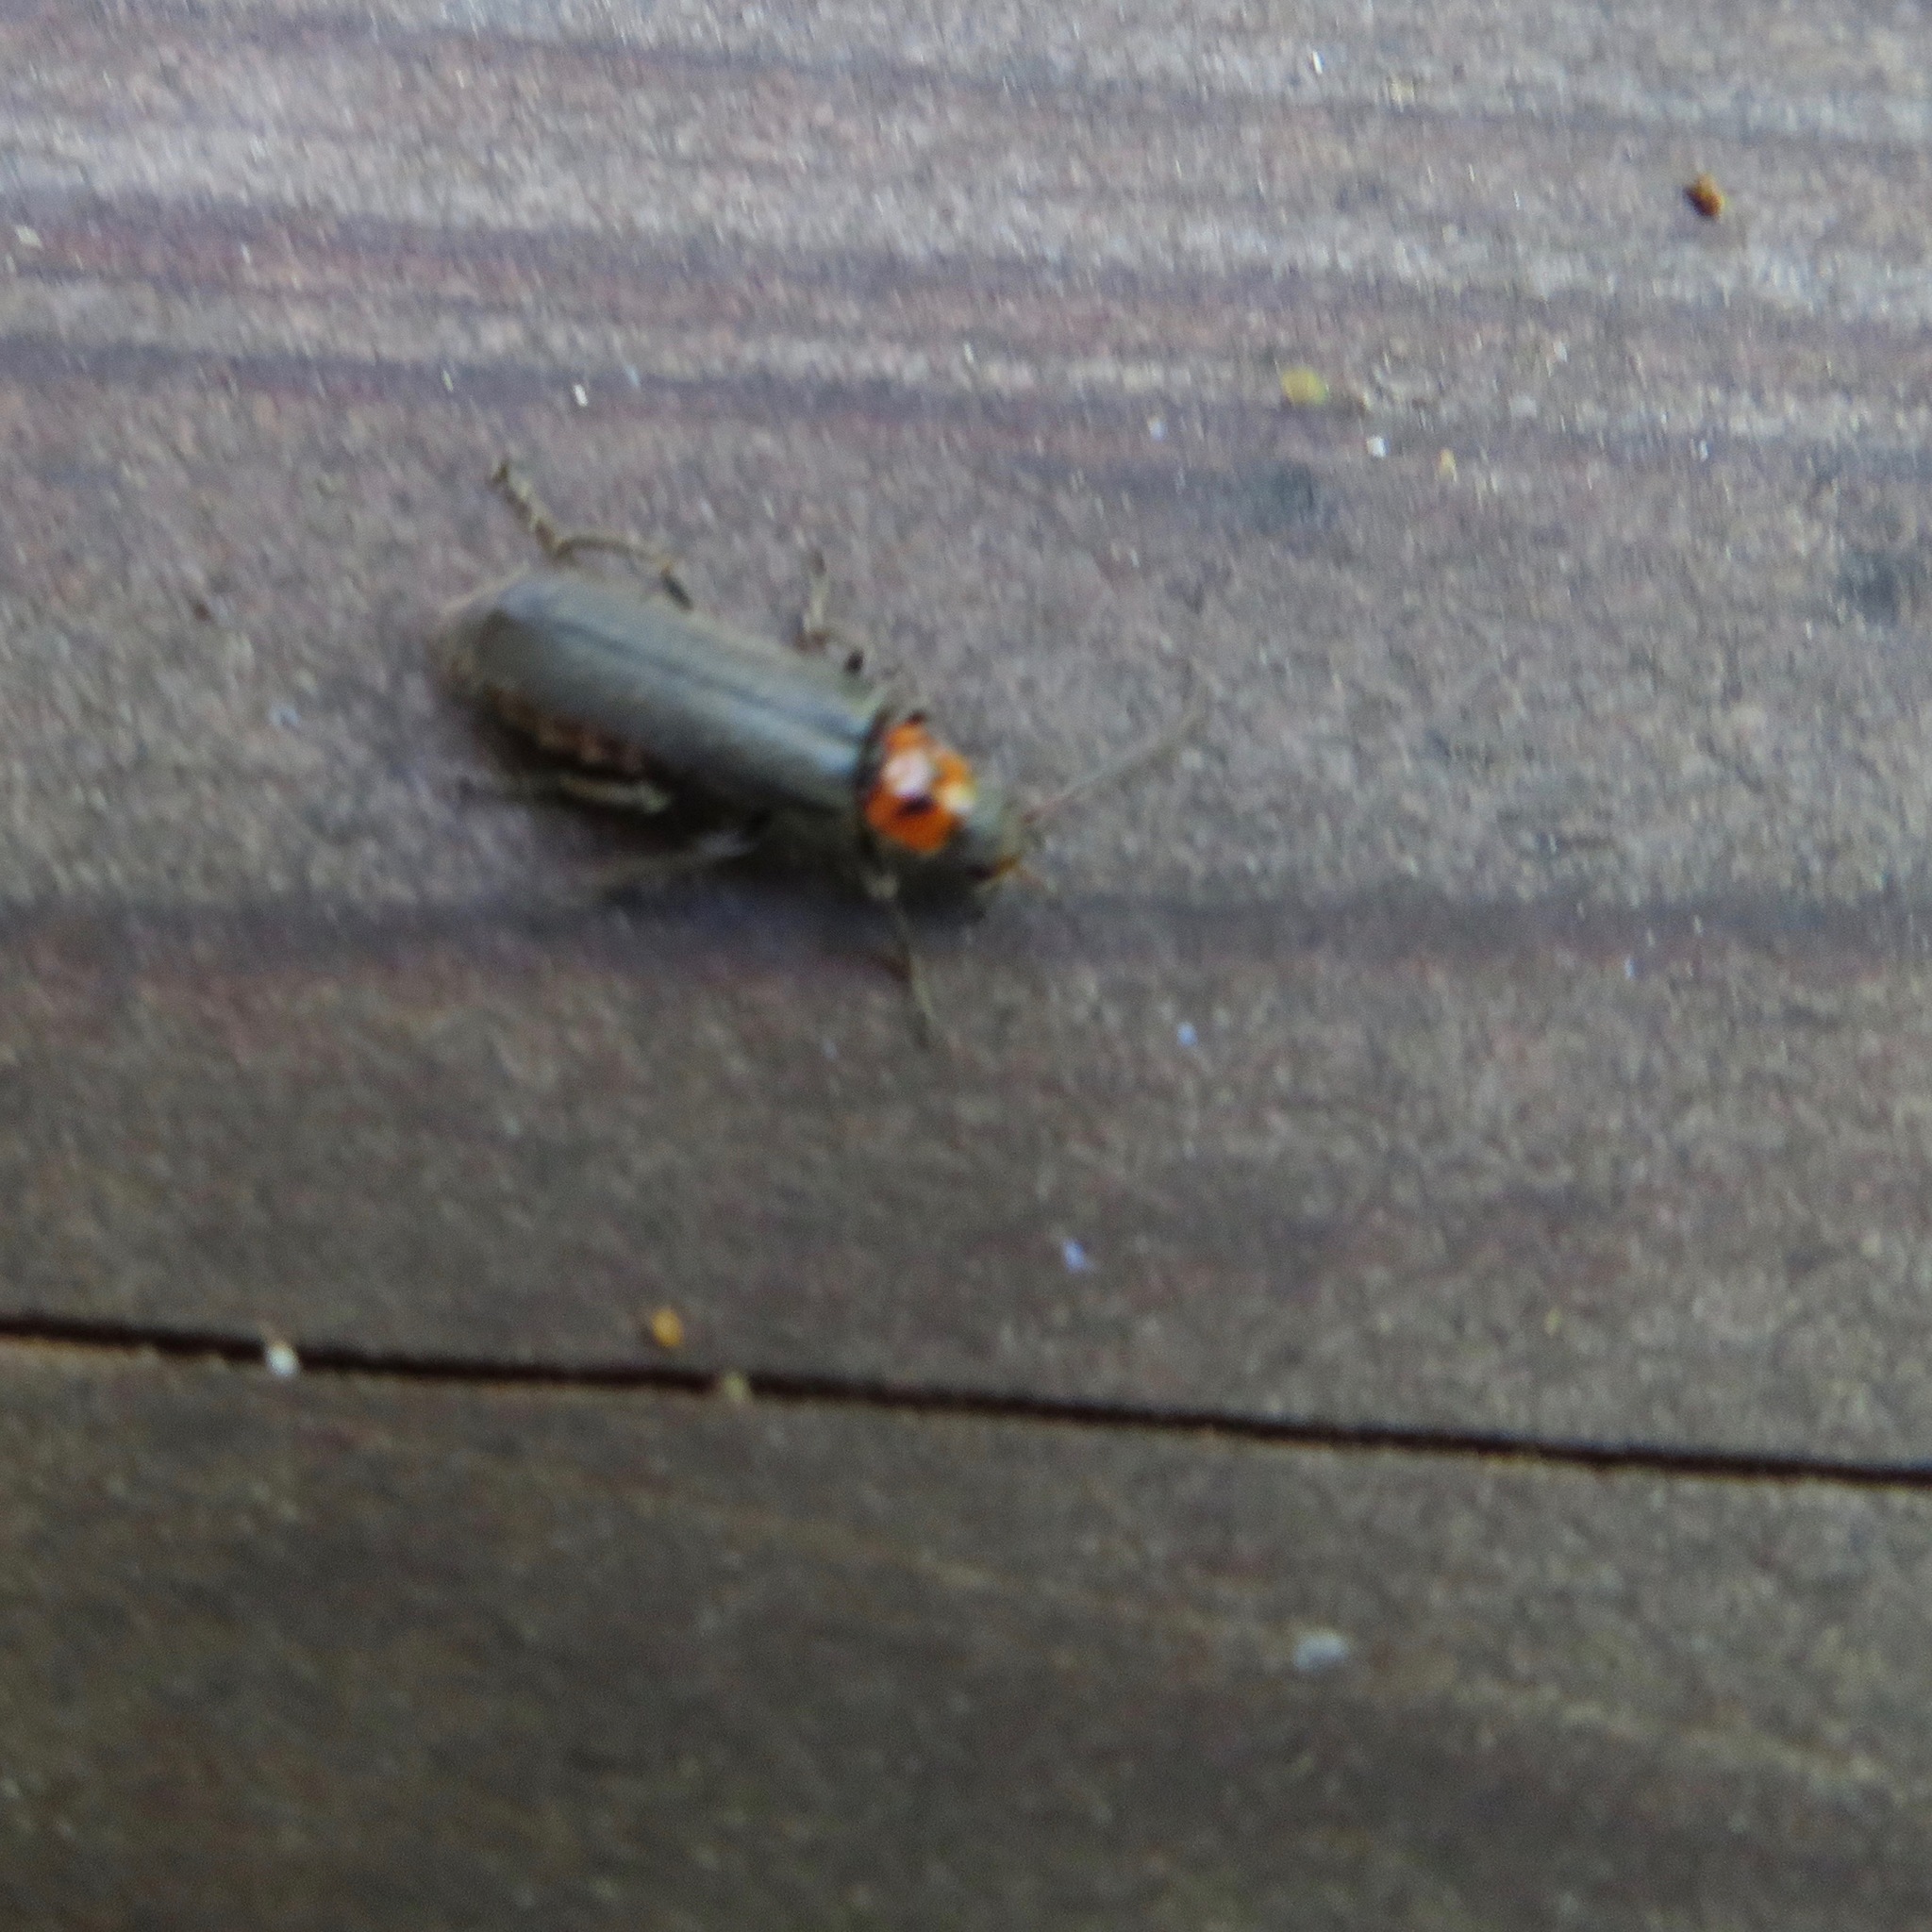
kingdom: Animalia
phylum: Arthropoda
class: Insecta
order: Coleoptera
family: Cantharidae
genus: Cyrtomoptera
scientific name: Cyrtomoptera divisa
